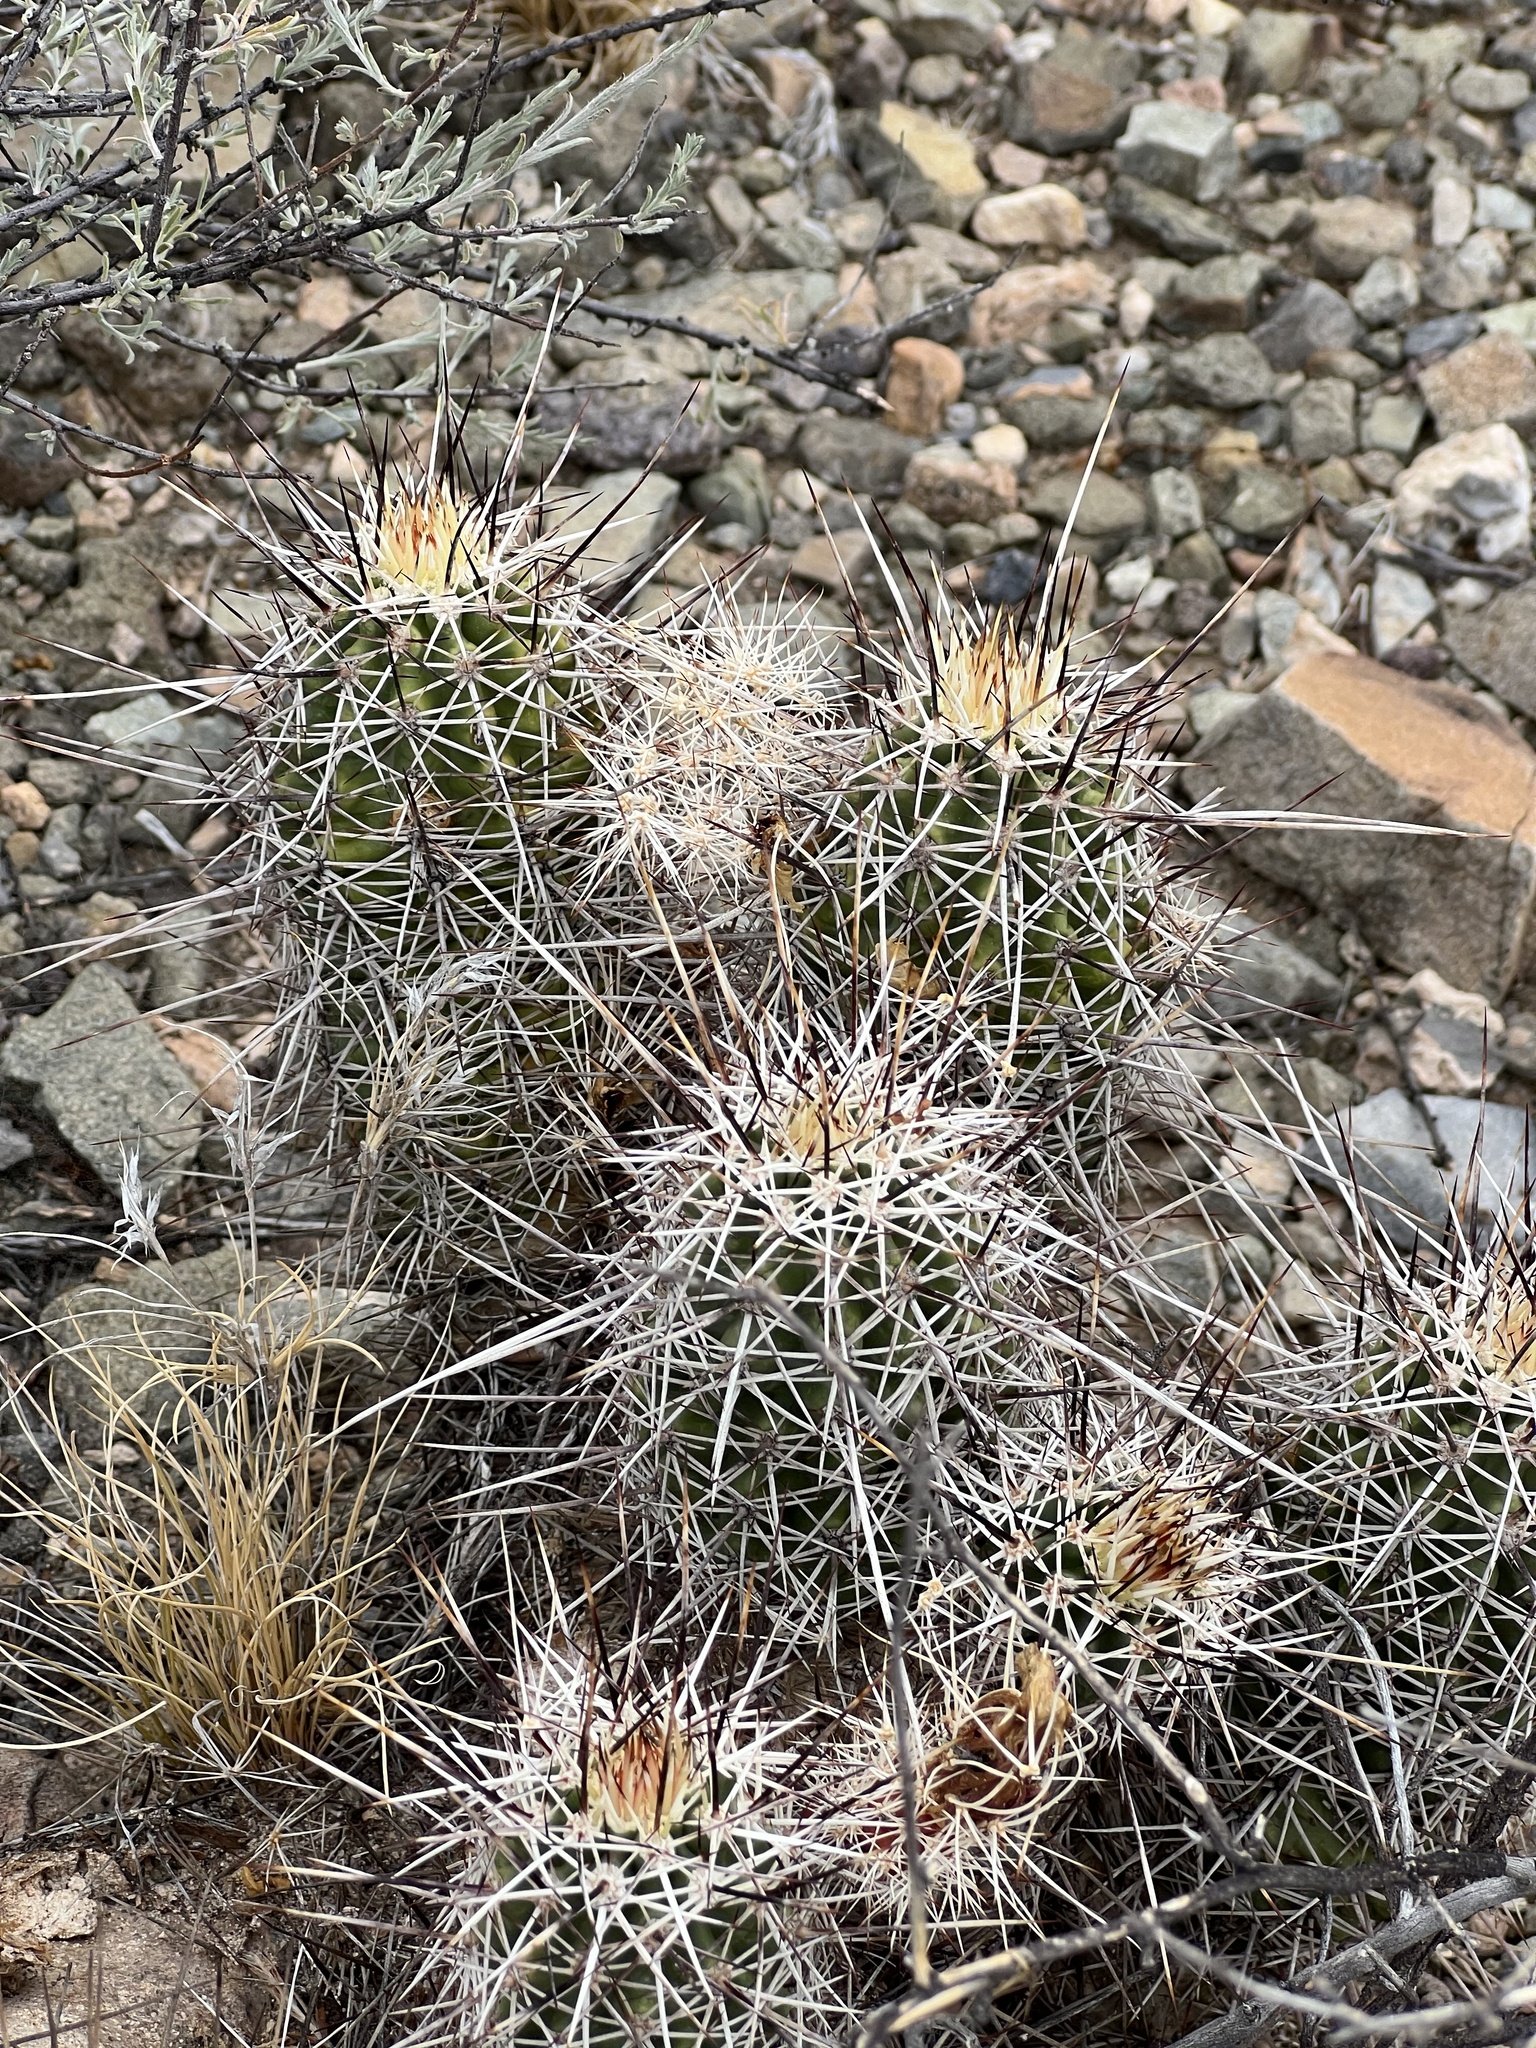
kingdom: Plantae
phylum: Tracheophyta
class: Magnoliopsida
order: Caryophyllales
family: Cactaceae
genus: Echinocereus
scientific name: Echinocereus fasciculatus
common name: Bundle hedgehog
